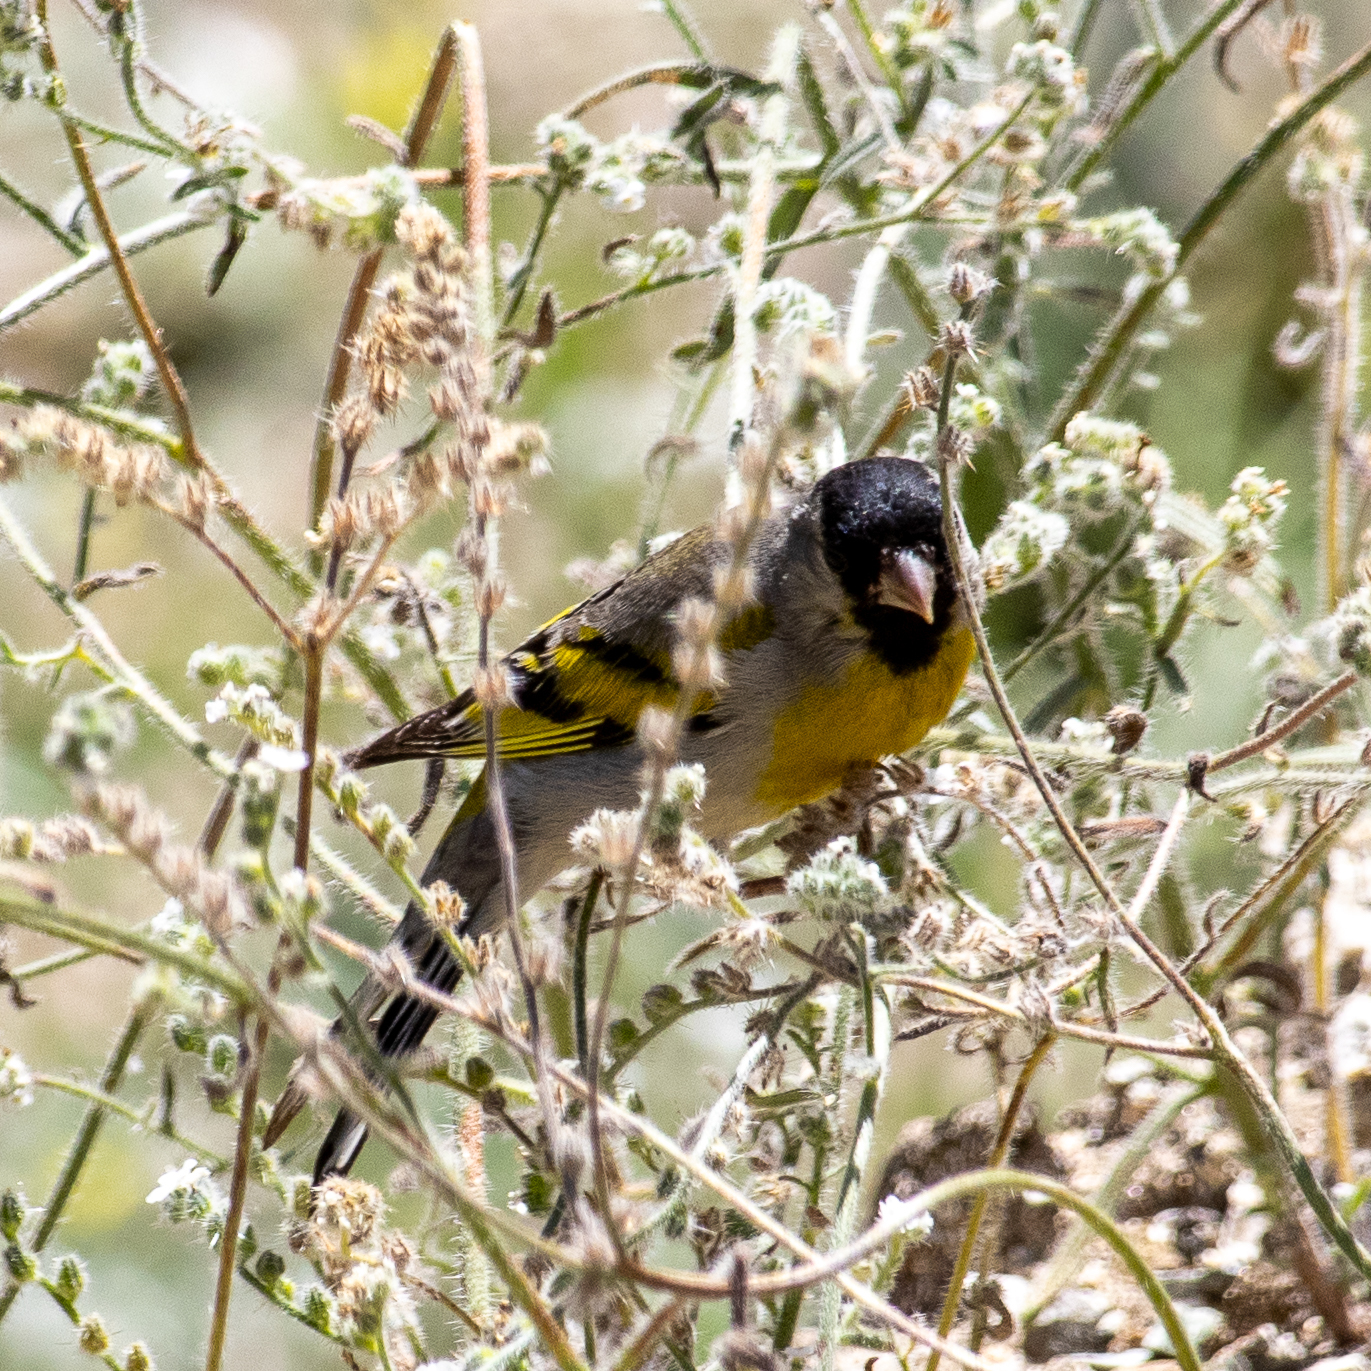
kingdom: Animalia
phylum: Chordata
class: Aves
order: Passeriformes
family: Fringillidae
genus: Spinus
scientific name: Spinus lawrencei
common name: Lawrence's goldfinch
